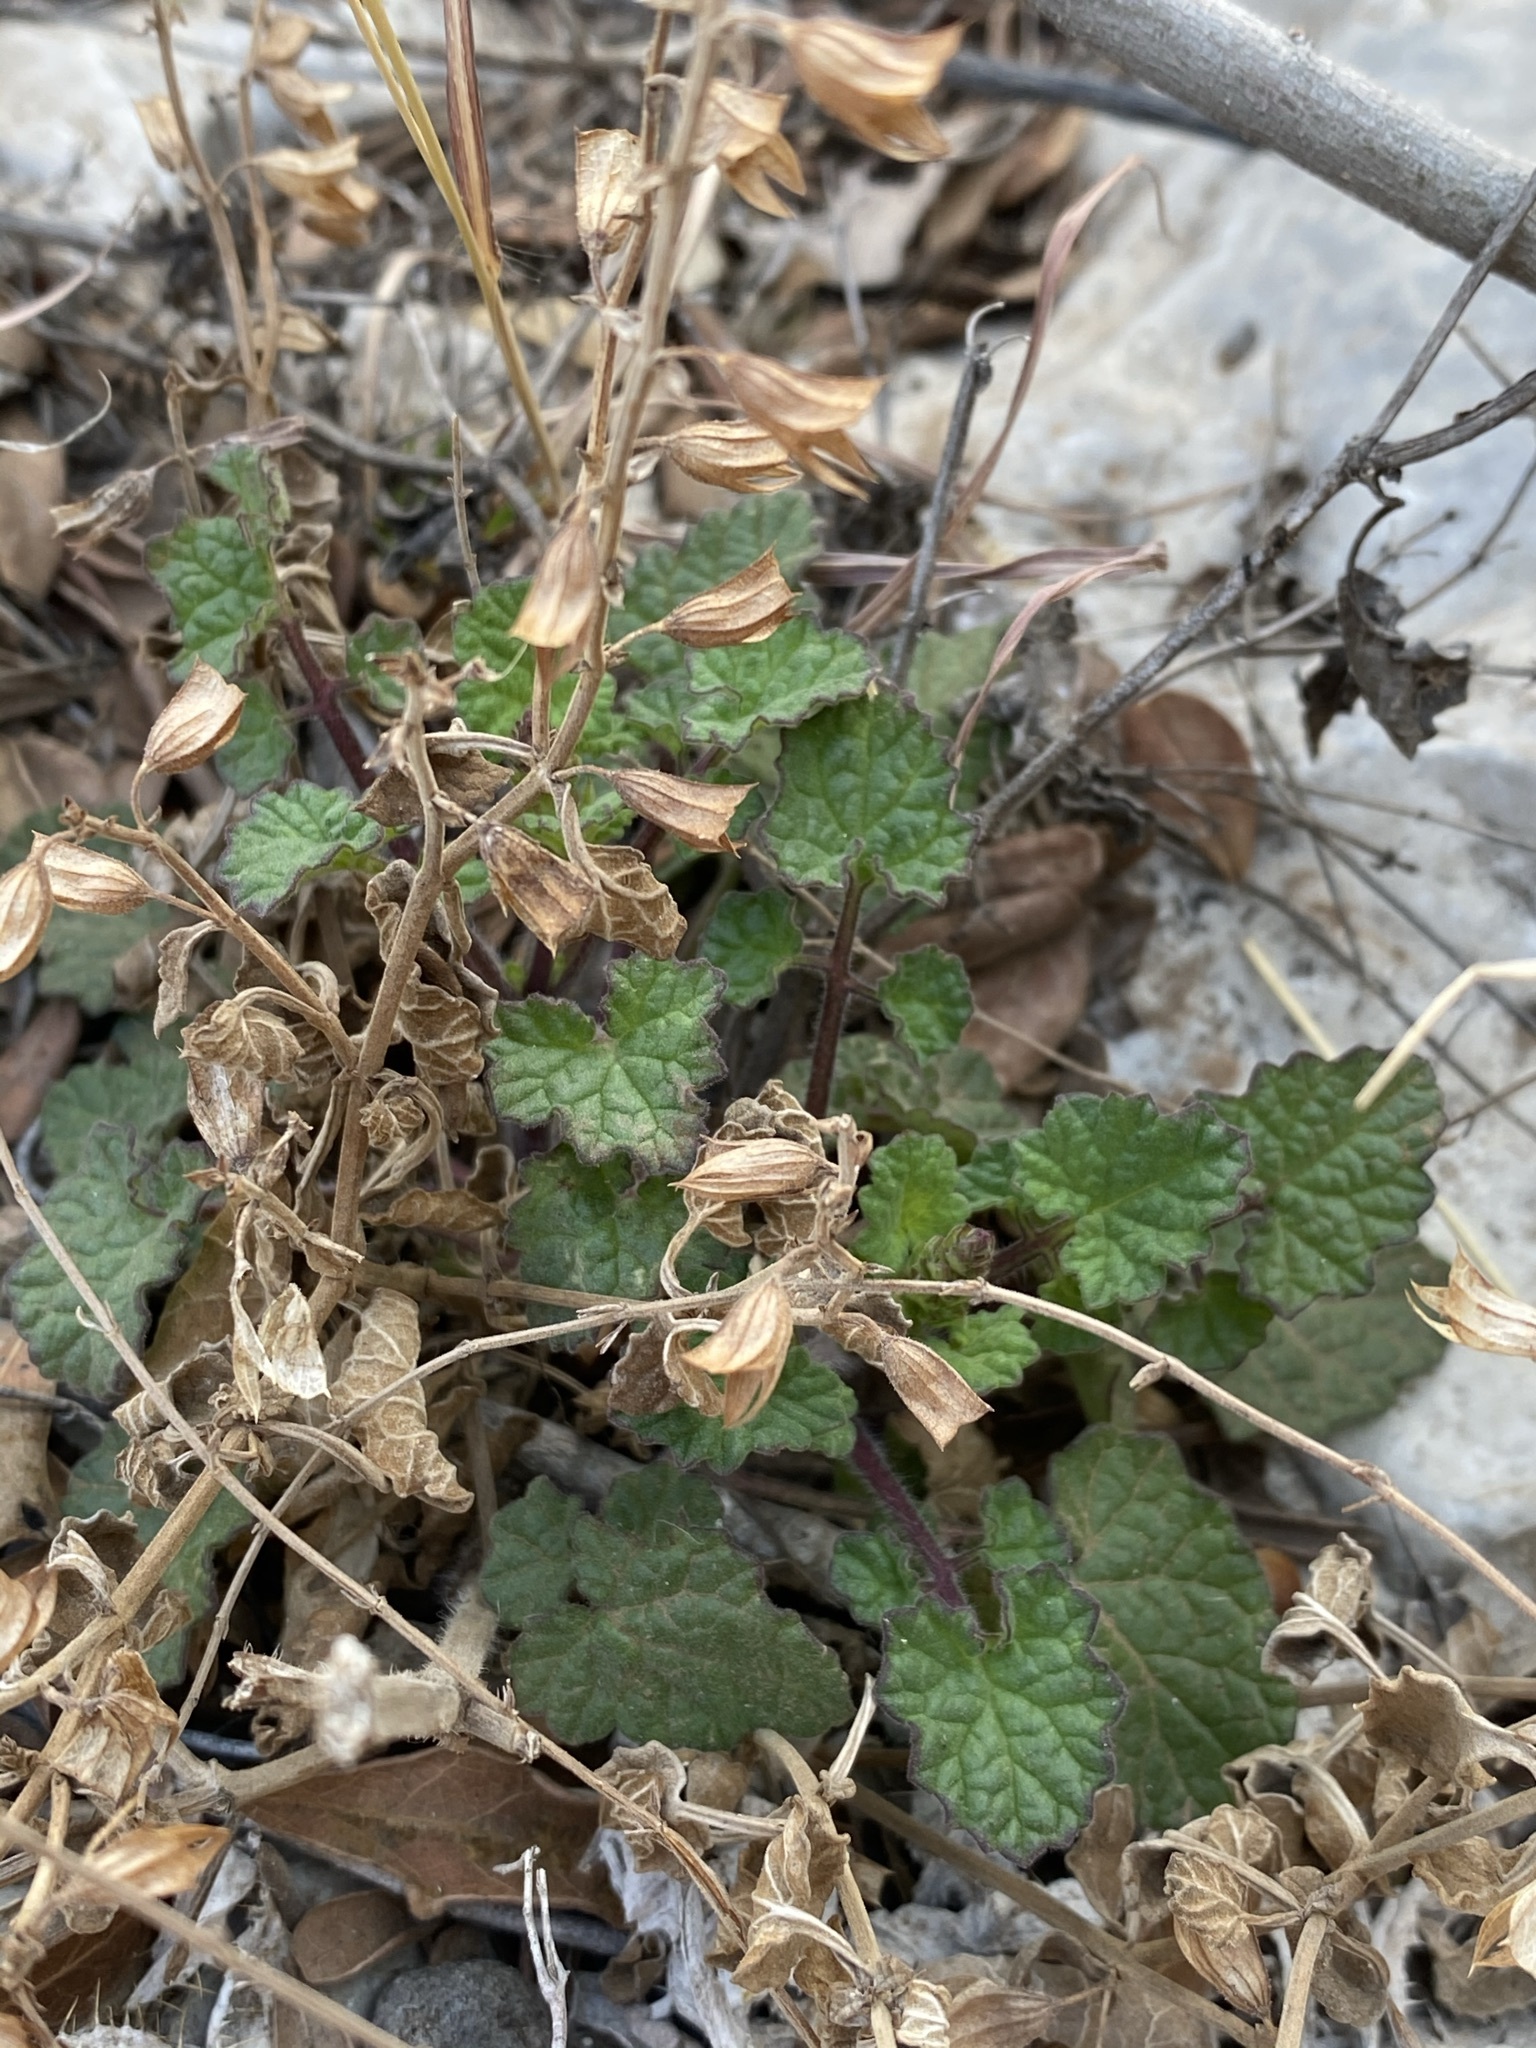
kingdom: Plantae
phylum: Tracheophyta
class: Magnoliopsida
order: Lamiales
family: Lamiaceae
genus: Salvia
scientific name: Salvia roemeriana
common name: Cedar sage
